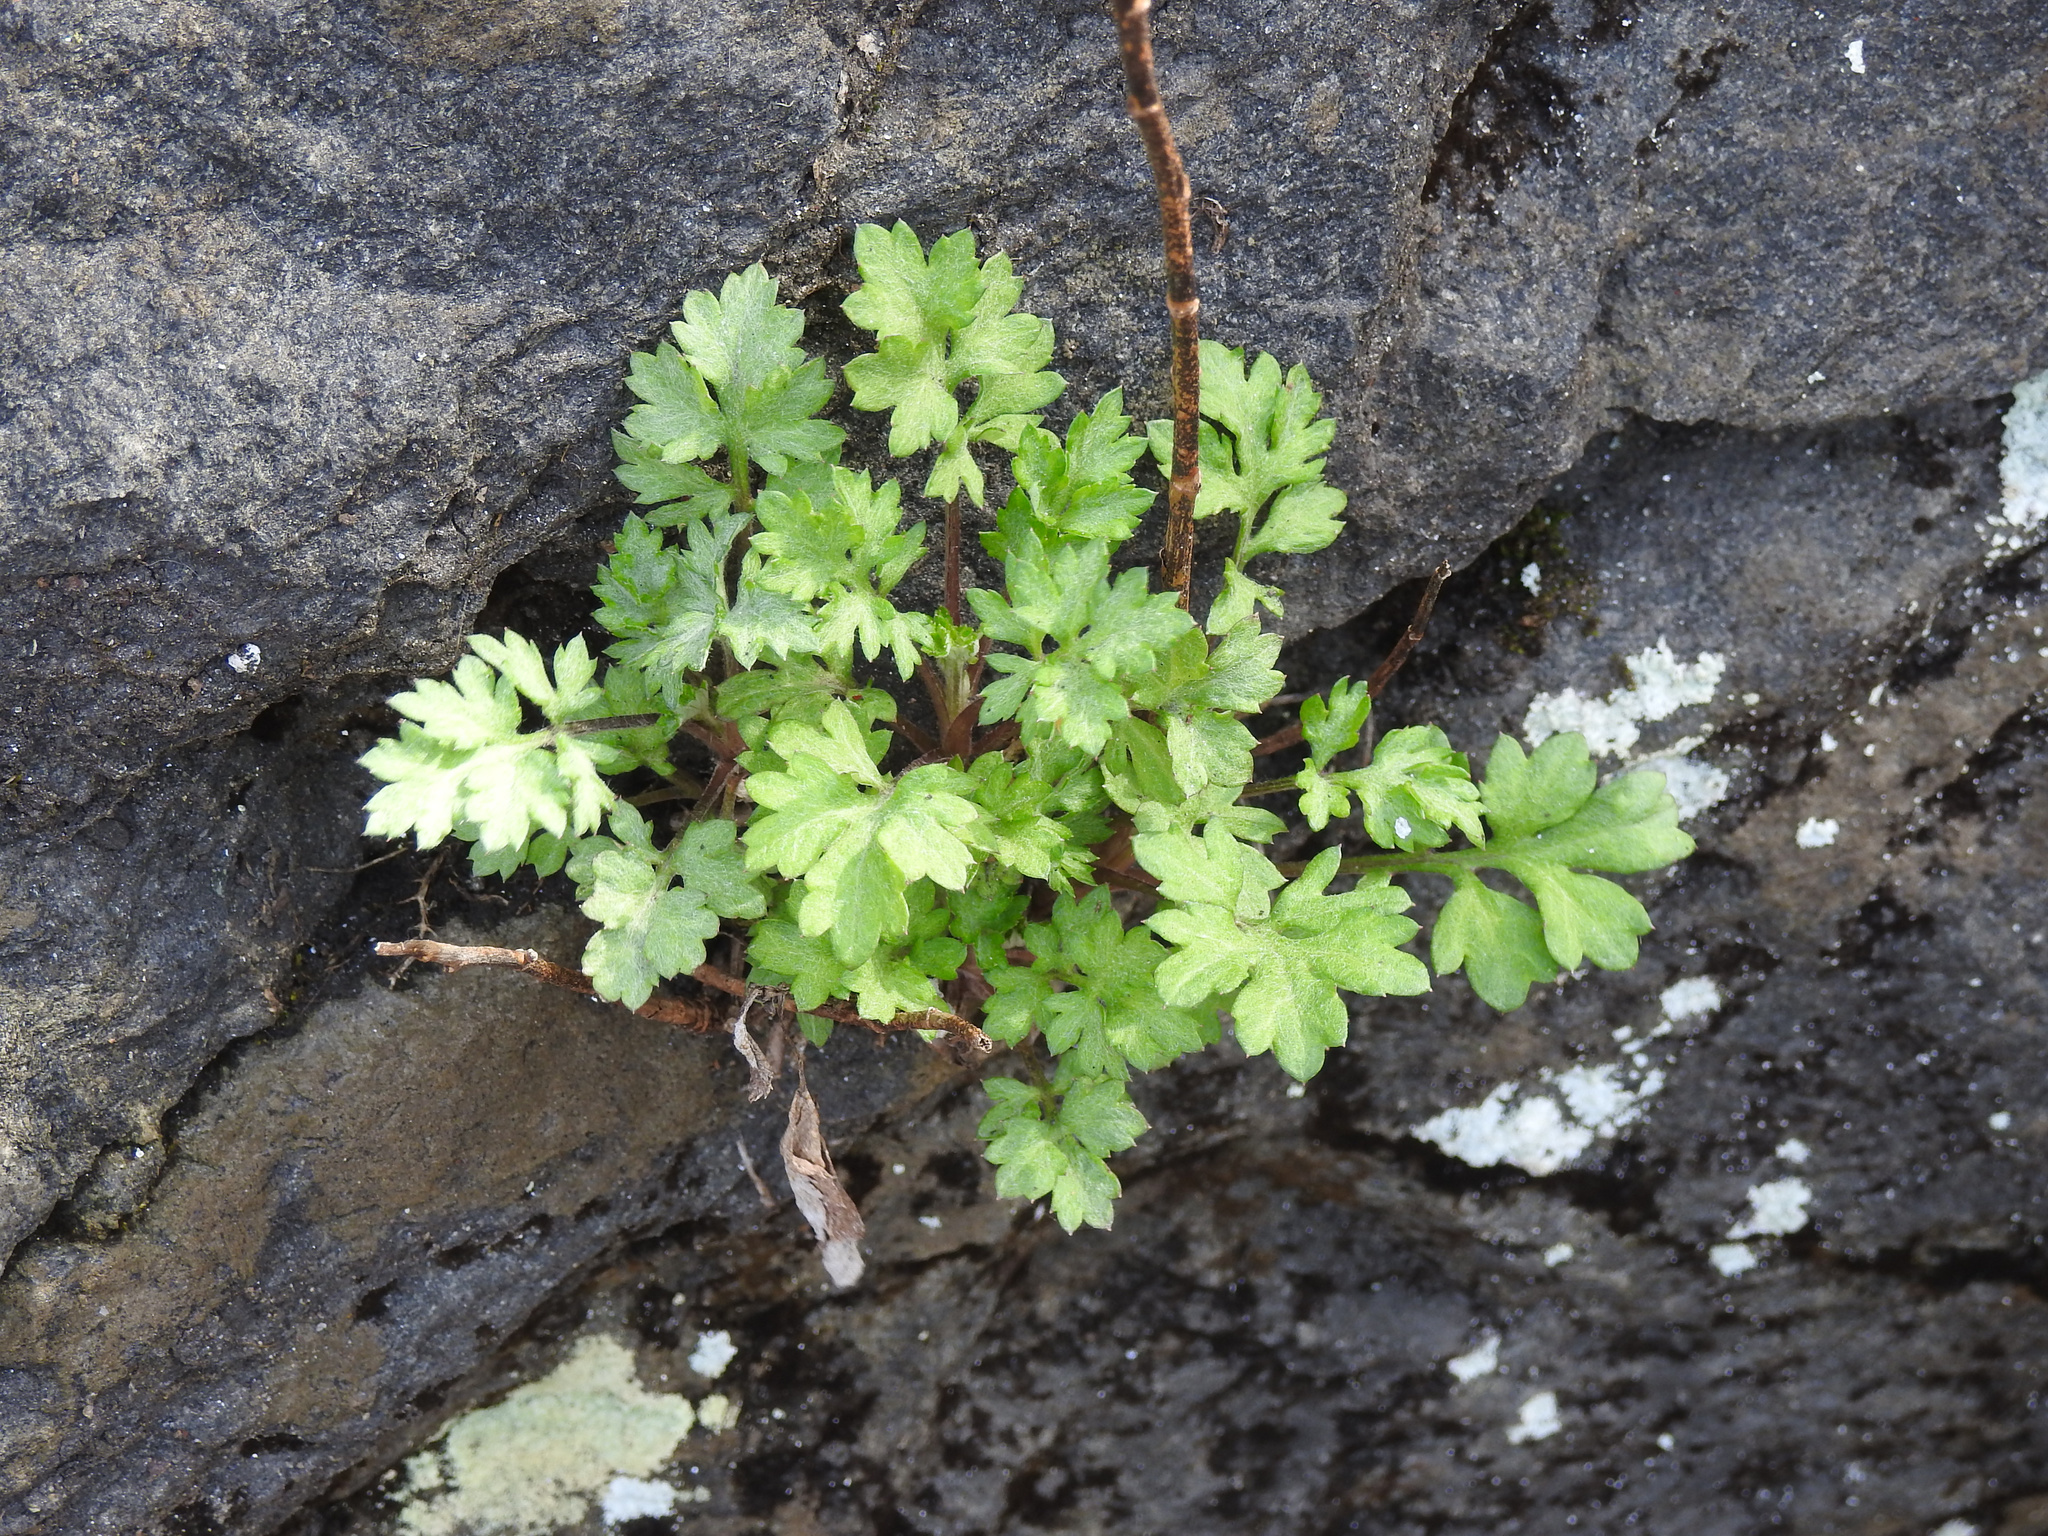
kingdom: Plantae
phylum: Tracheophyta
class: Magnoliopsida
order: Asterales
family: Asteraceae
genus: Artemisia
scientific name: Artemisia vulgaris
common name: Mugwort
